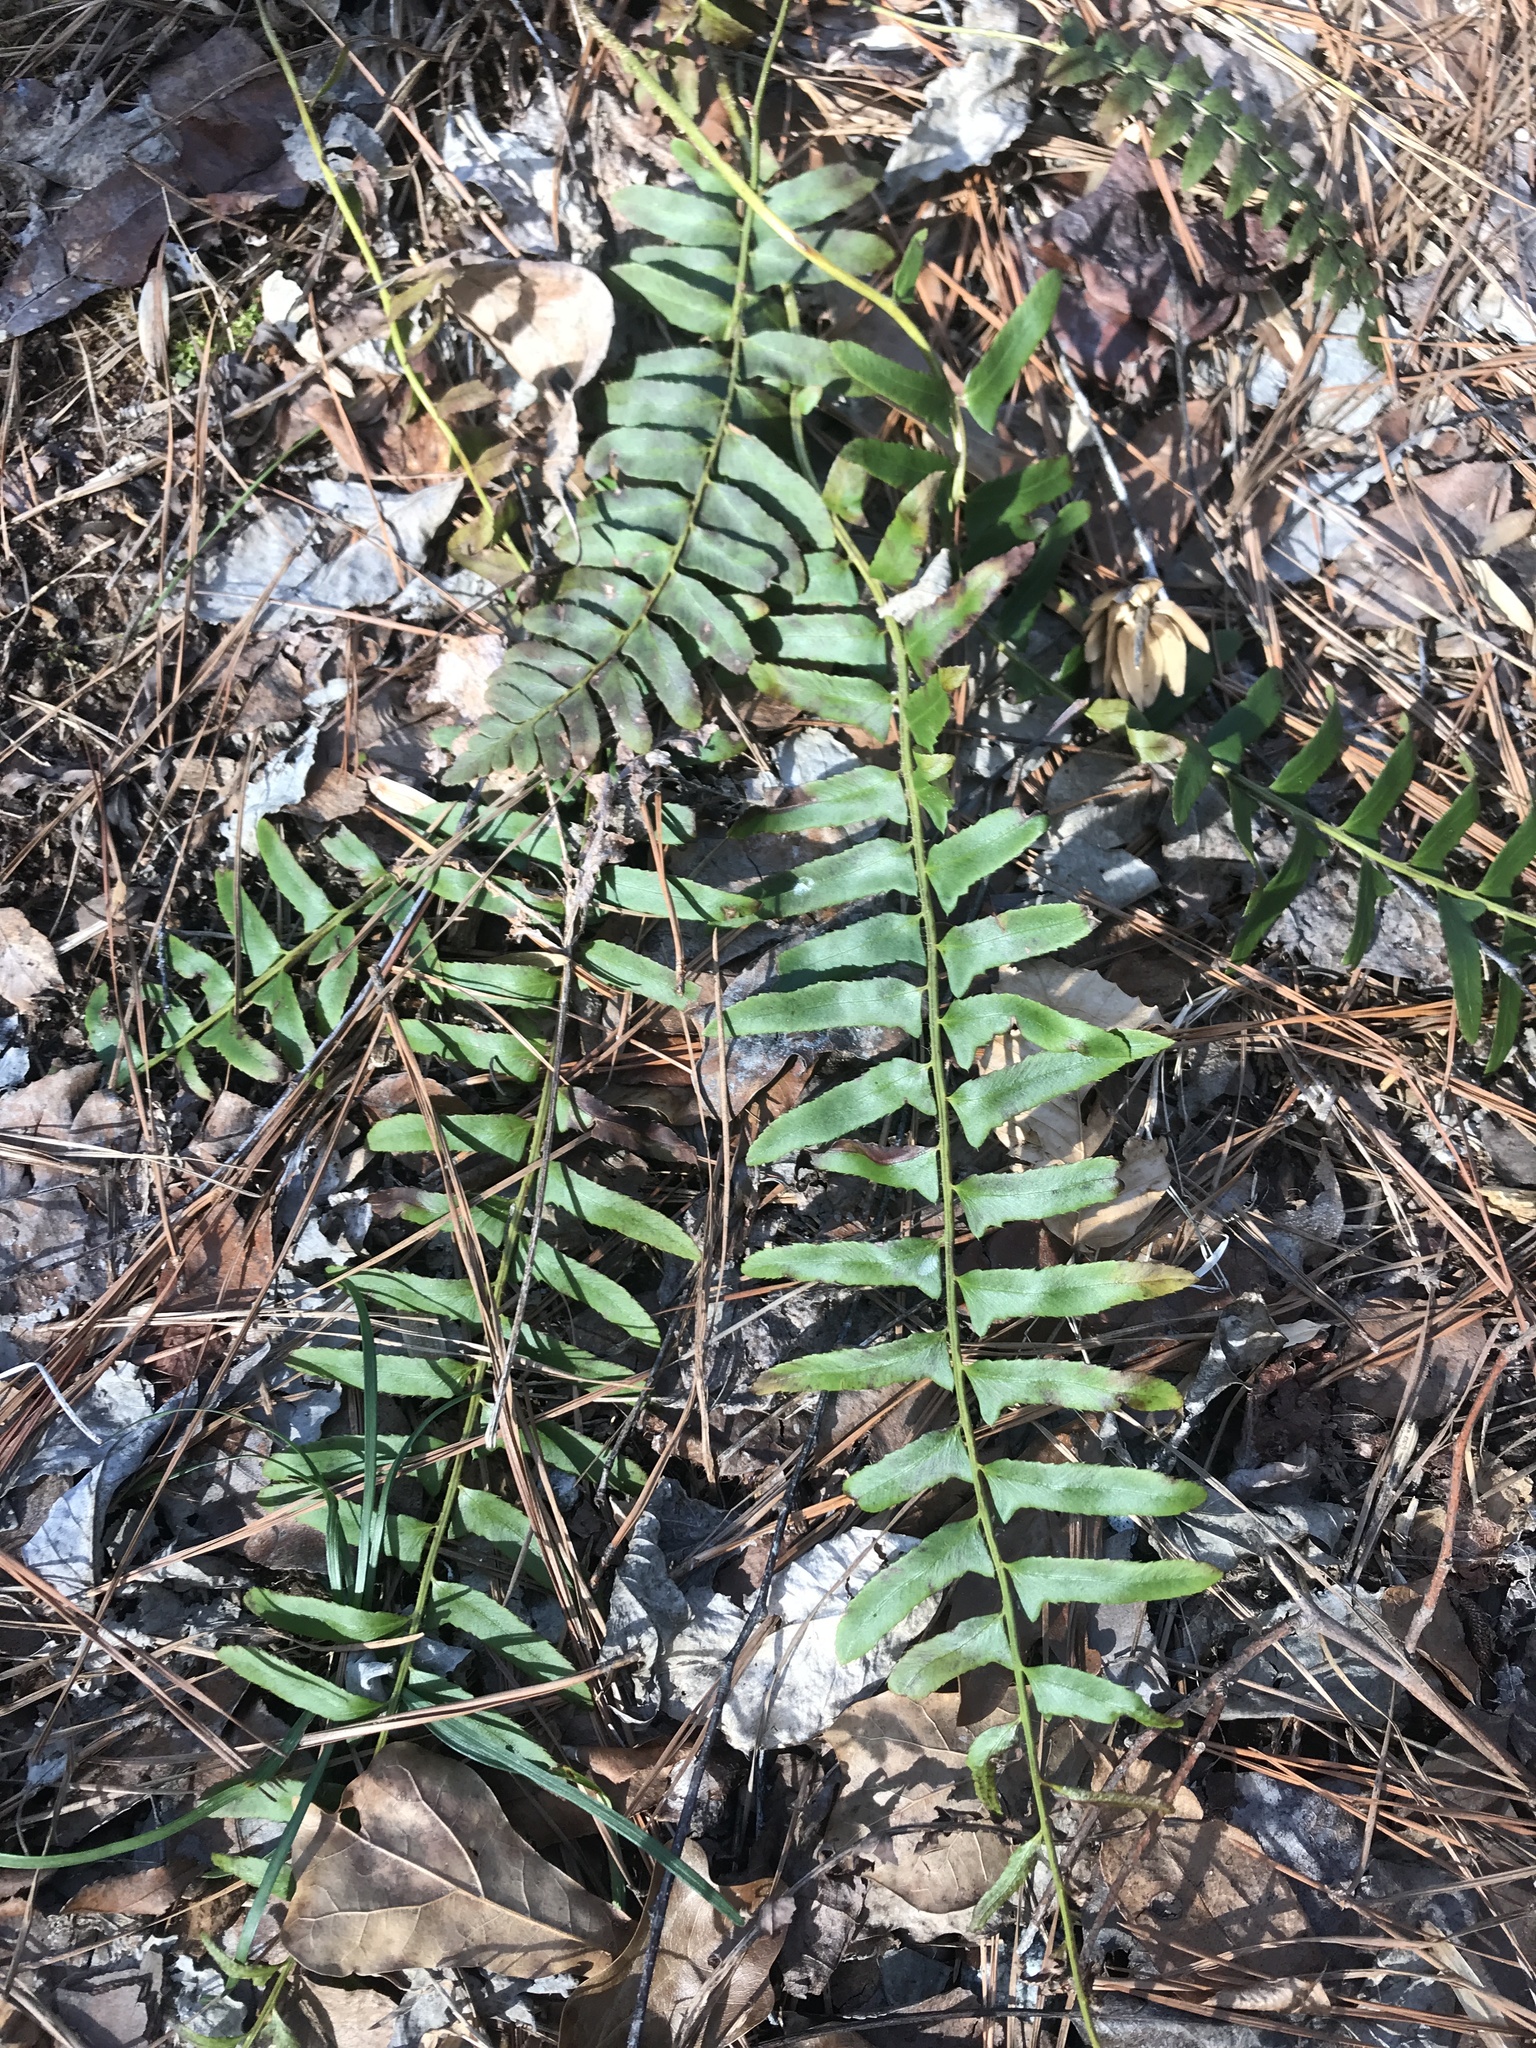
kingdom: Plantae
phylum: Tracheophyta
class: Polypodiopsida
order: Polypodiales
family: Dryopteridaceae
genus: Polystichum
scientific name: Polystichum acrostichoides
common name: Christmas fern
